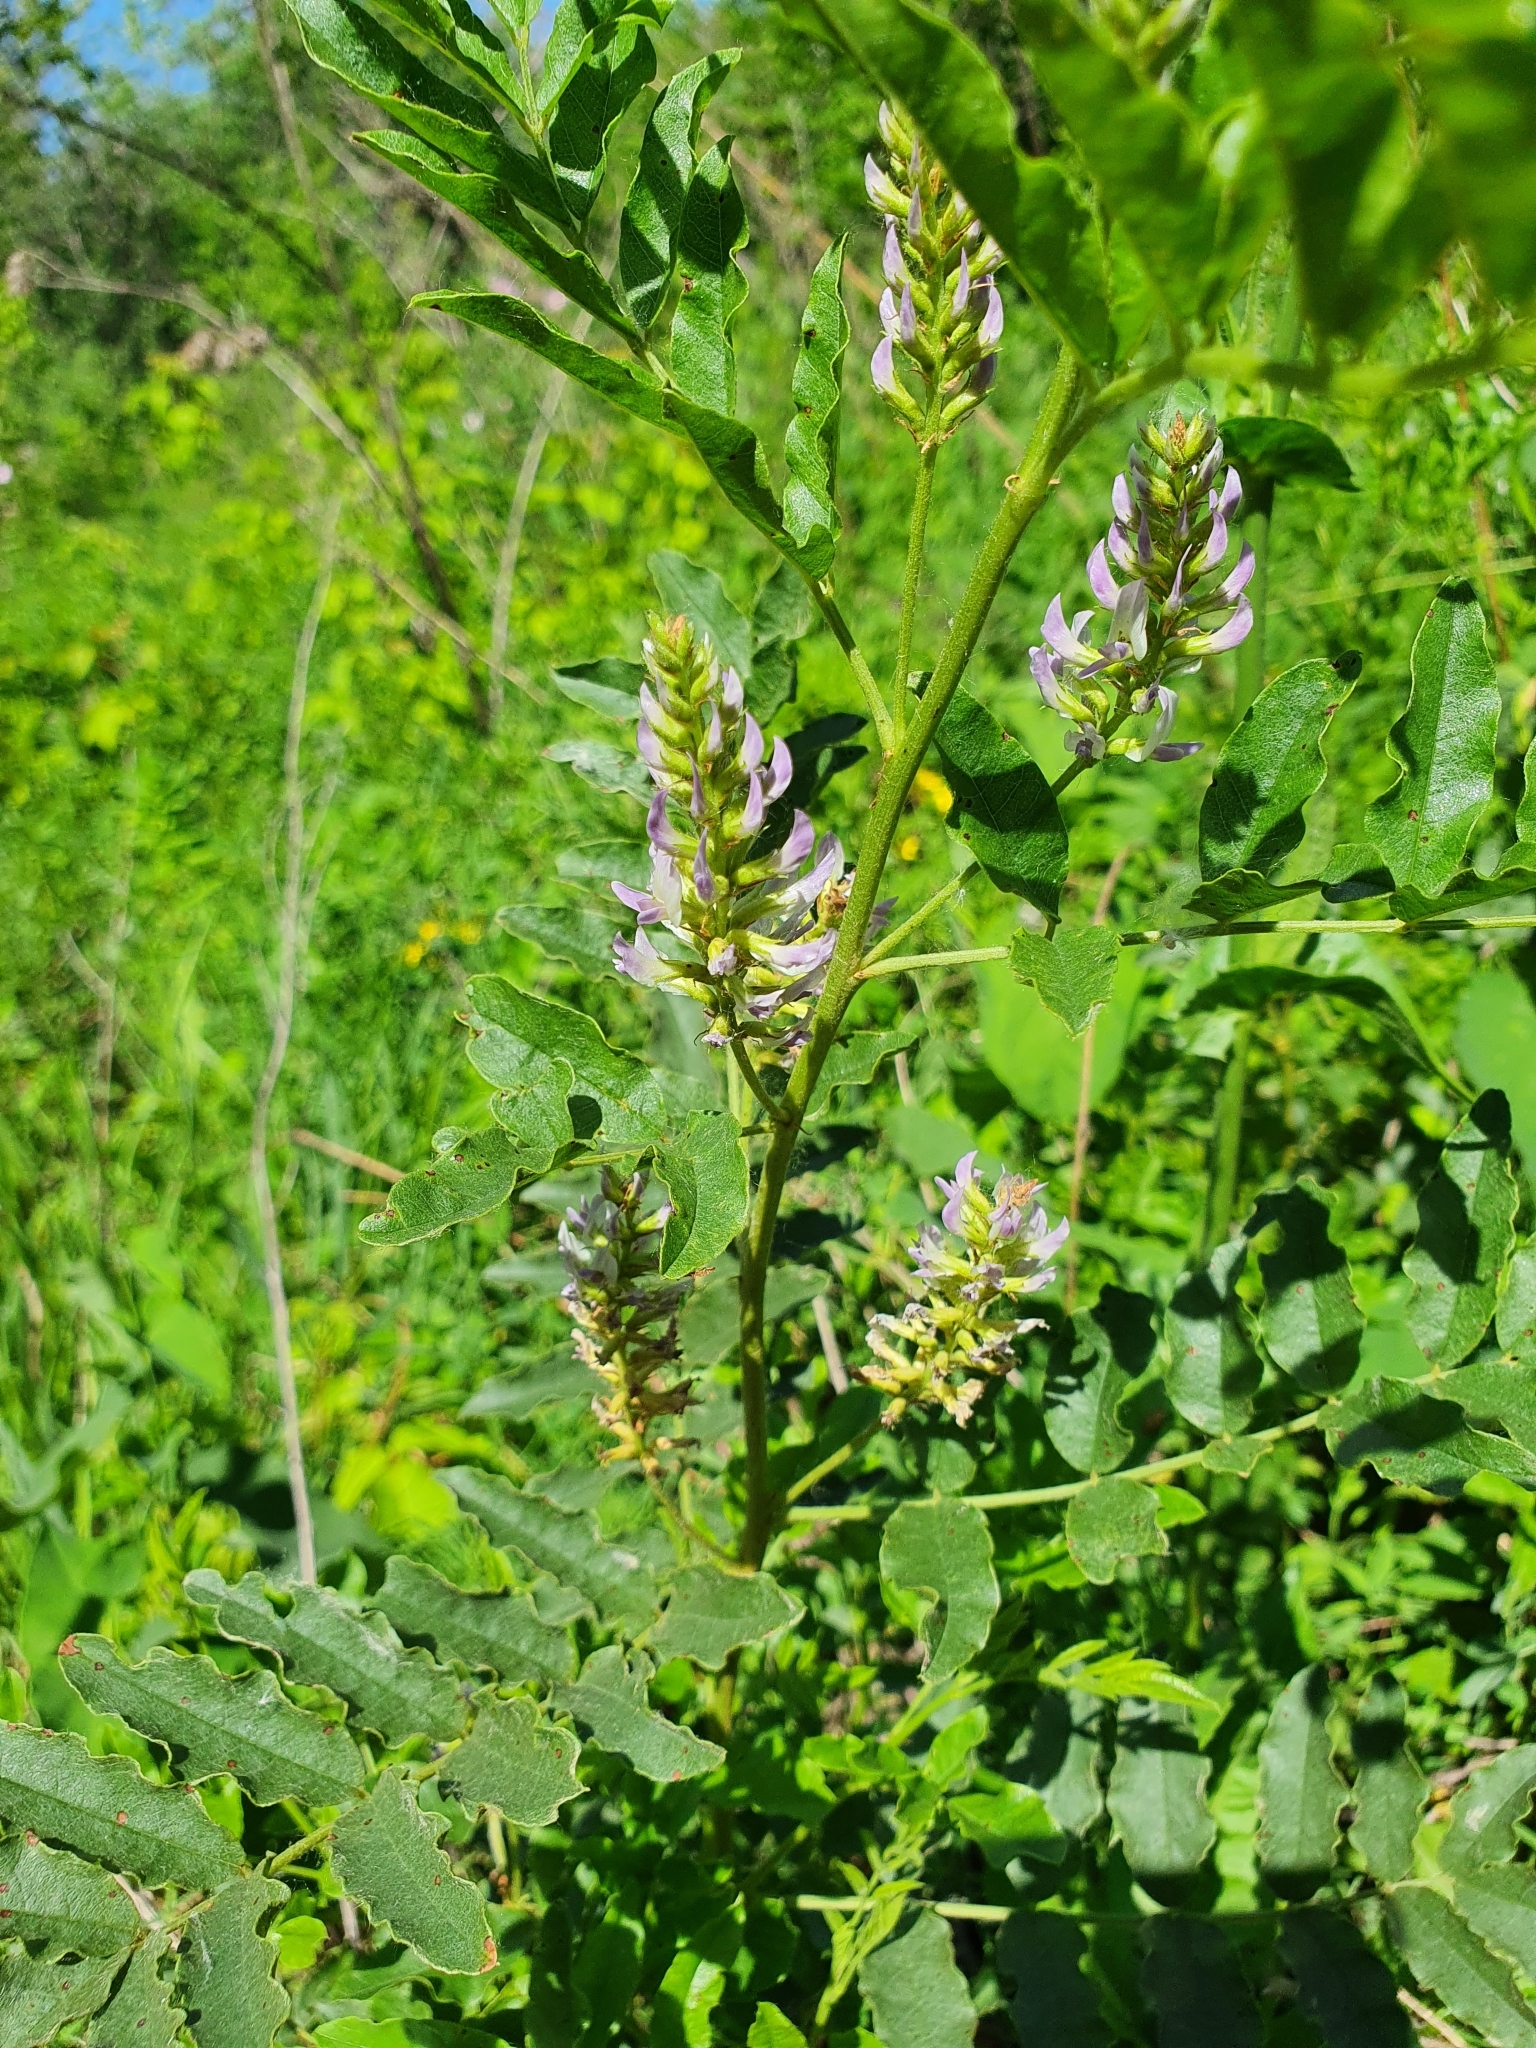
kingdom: Plantae
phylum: Tracheophyta
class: Magnoliopsida
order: Fabales
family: Fabaceae
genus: Glycyrrhiza
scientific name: Glycyrrhiza glabra
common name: Liquorice
